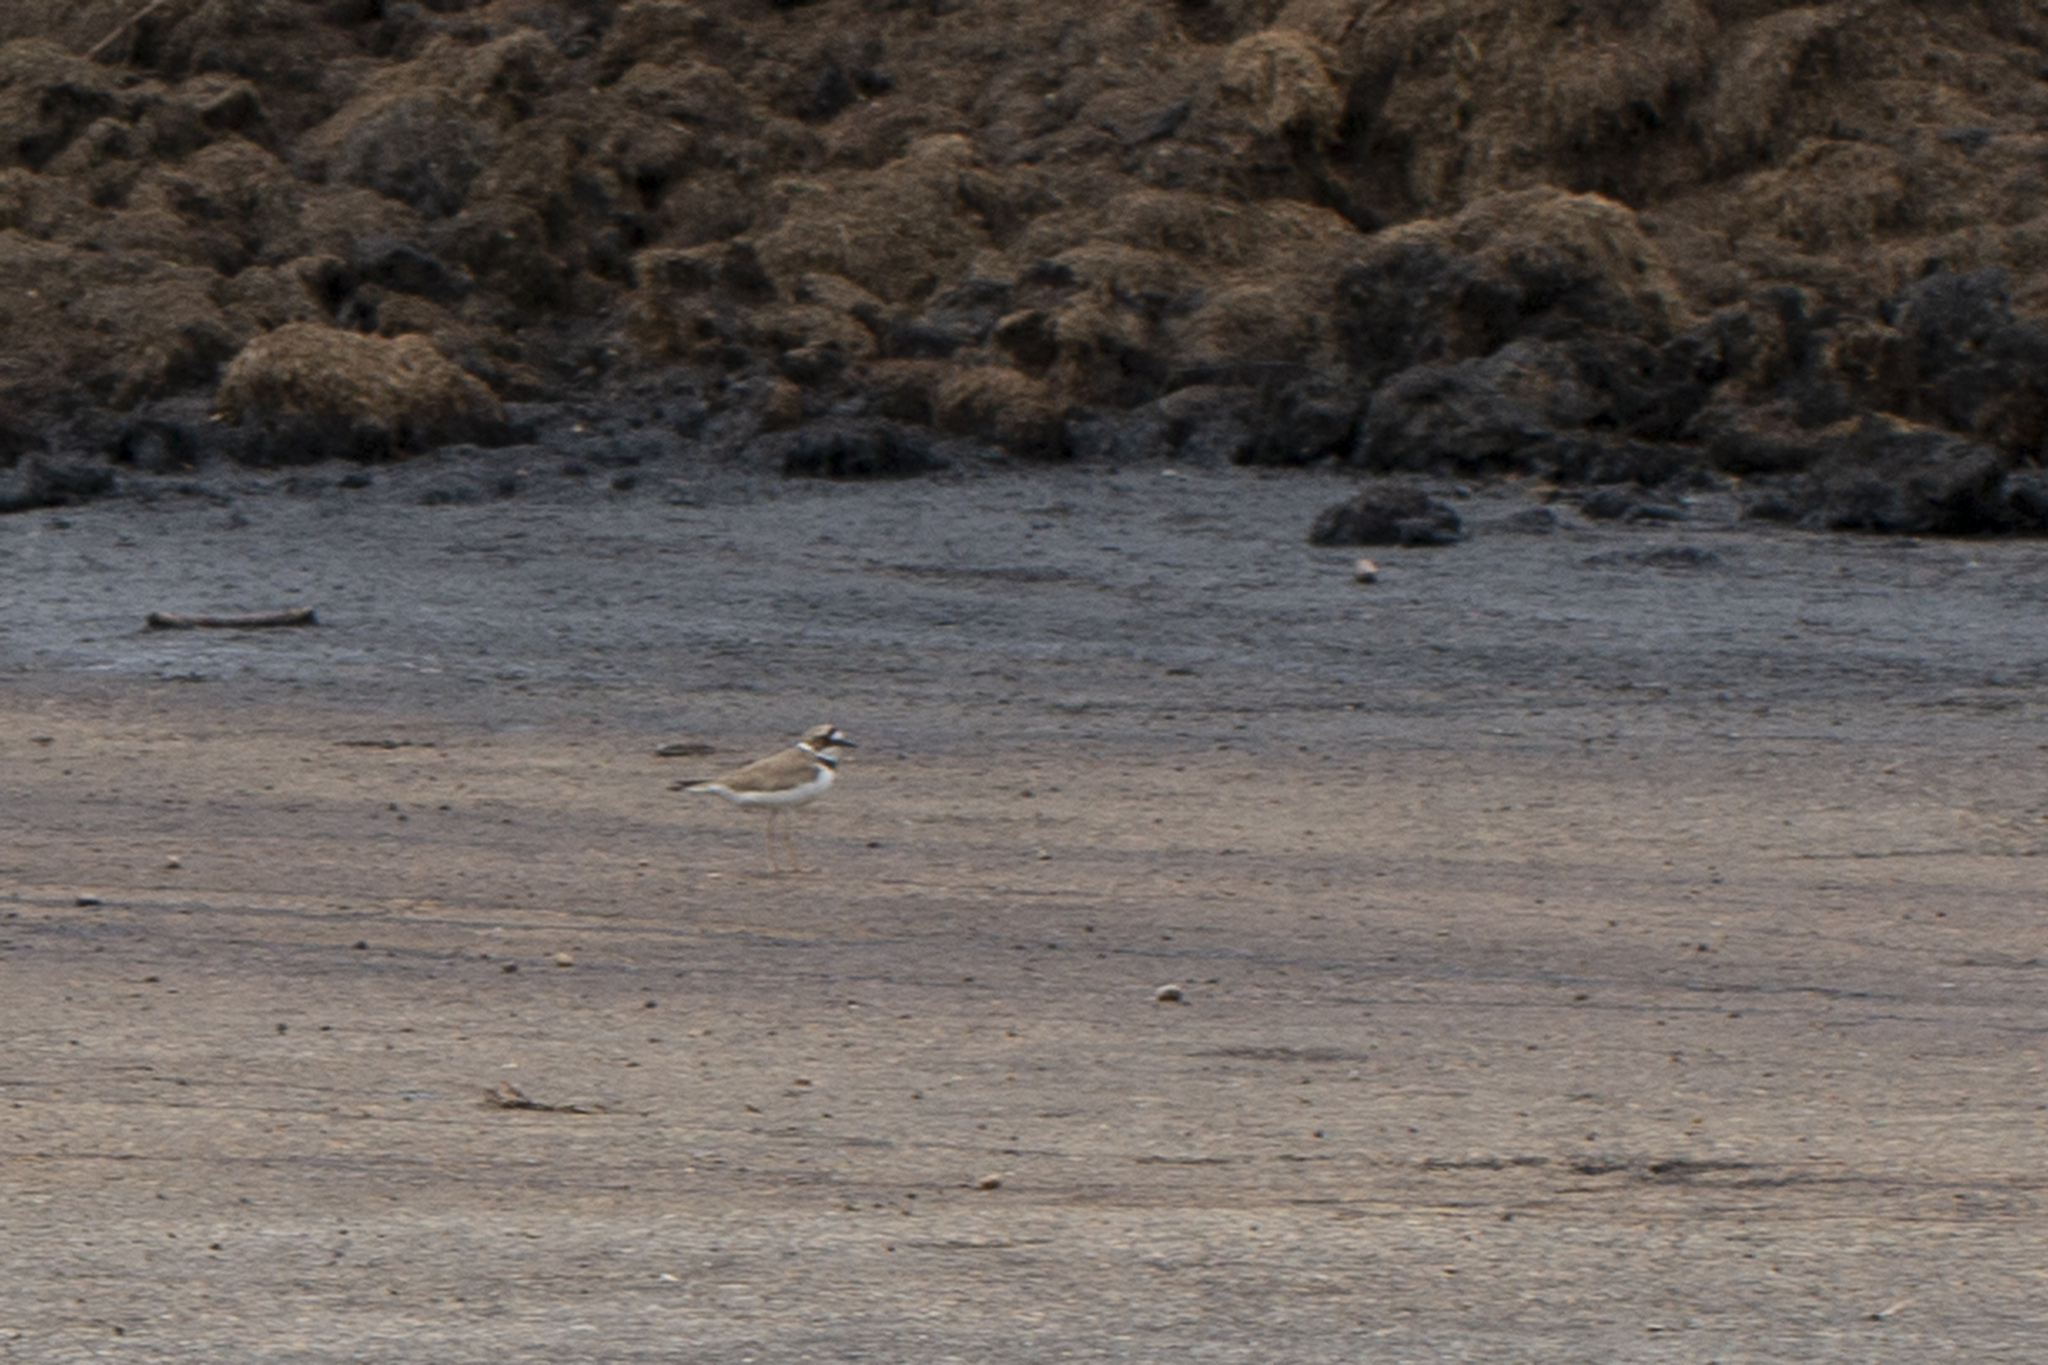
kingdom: Animalia
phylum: Chordata
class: Aves
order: Charadriiformes
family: Charadriidae
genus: Charadrius
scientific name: Charadrius dubius
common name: Little ringed plover
